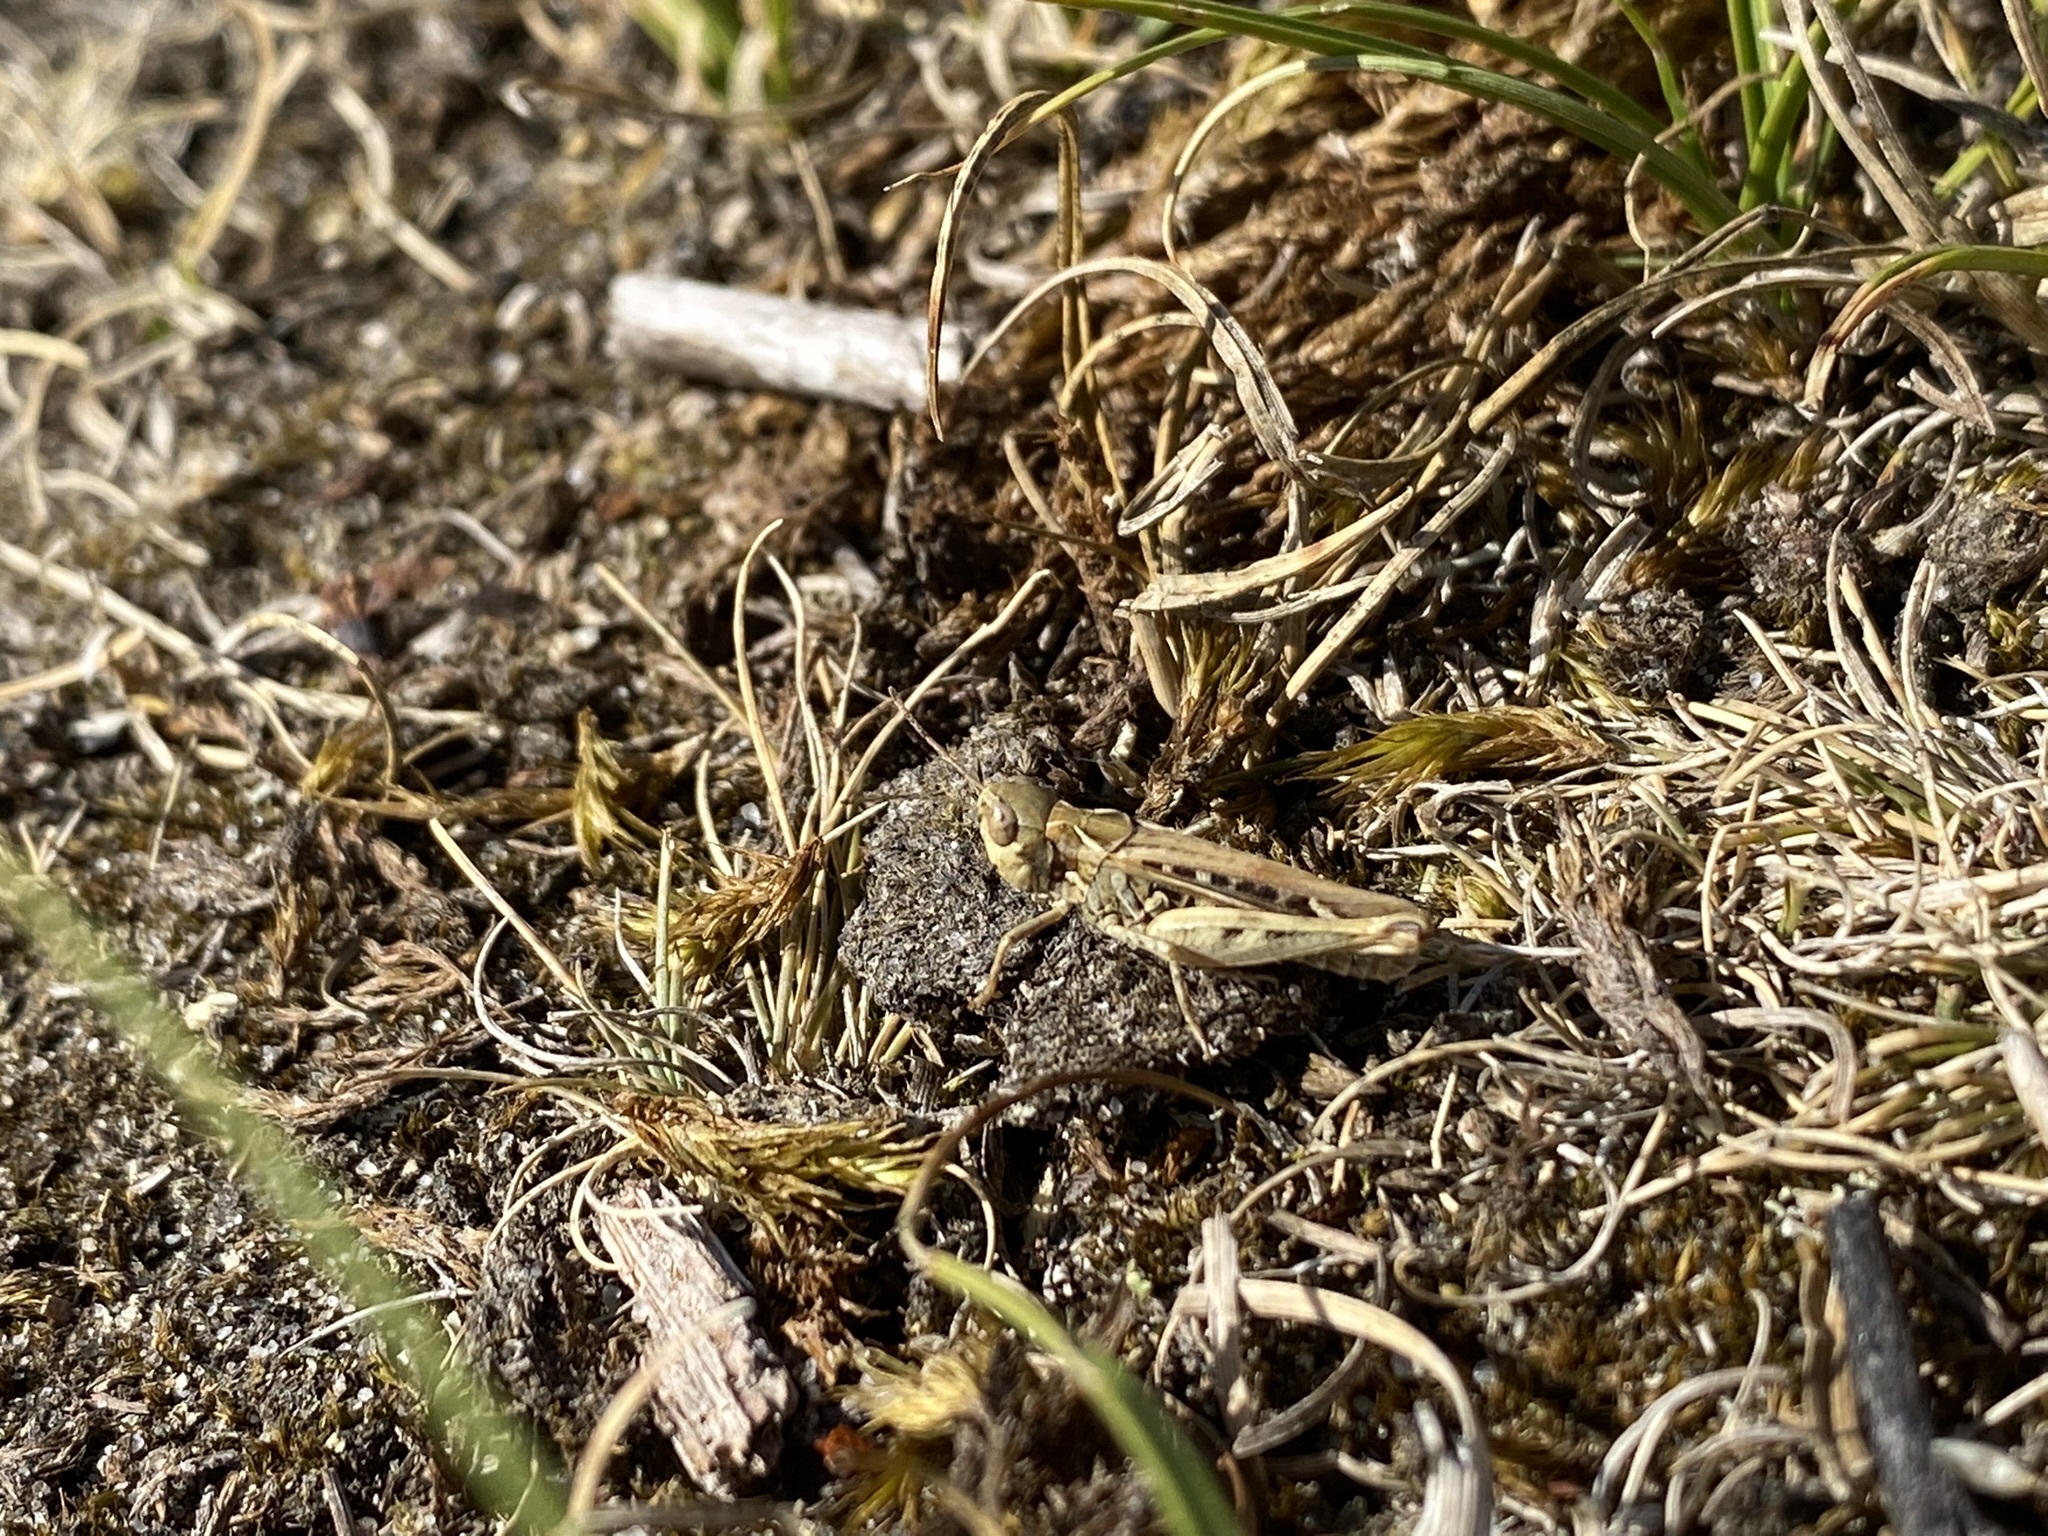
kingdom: Animalia
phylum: Arthropoda
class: Insecta
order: Orthoptera
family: Acrididae
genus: Myrmeleotettix
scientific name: Myrmeleotettix maculatus
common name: Mottled grasshopper
